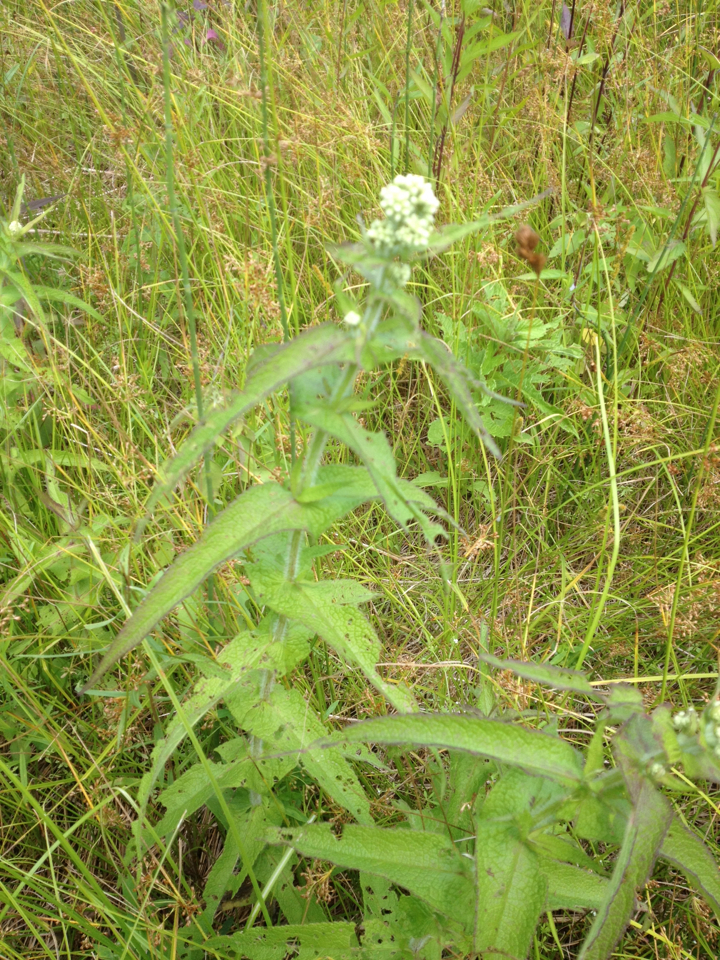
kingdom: Plantae
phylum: Tracheophyta
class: Magnoliopsida
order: Asterales
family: Asteraceae
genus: Eupatorium
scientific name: Eupatorium perfoliatum
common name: Boneset
